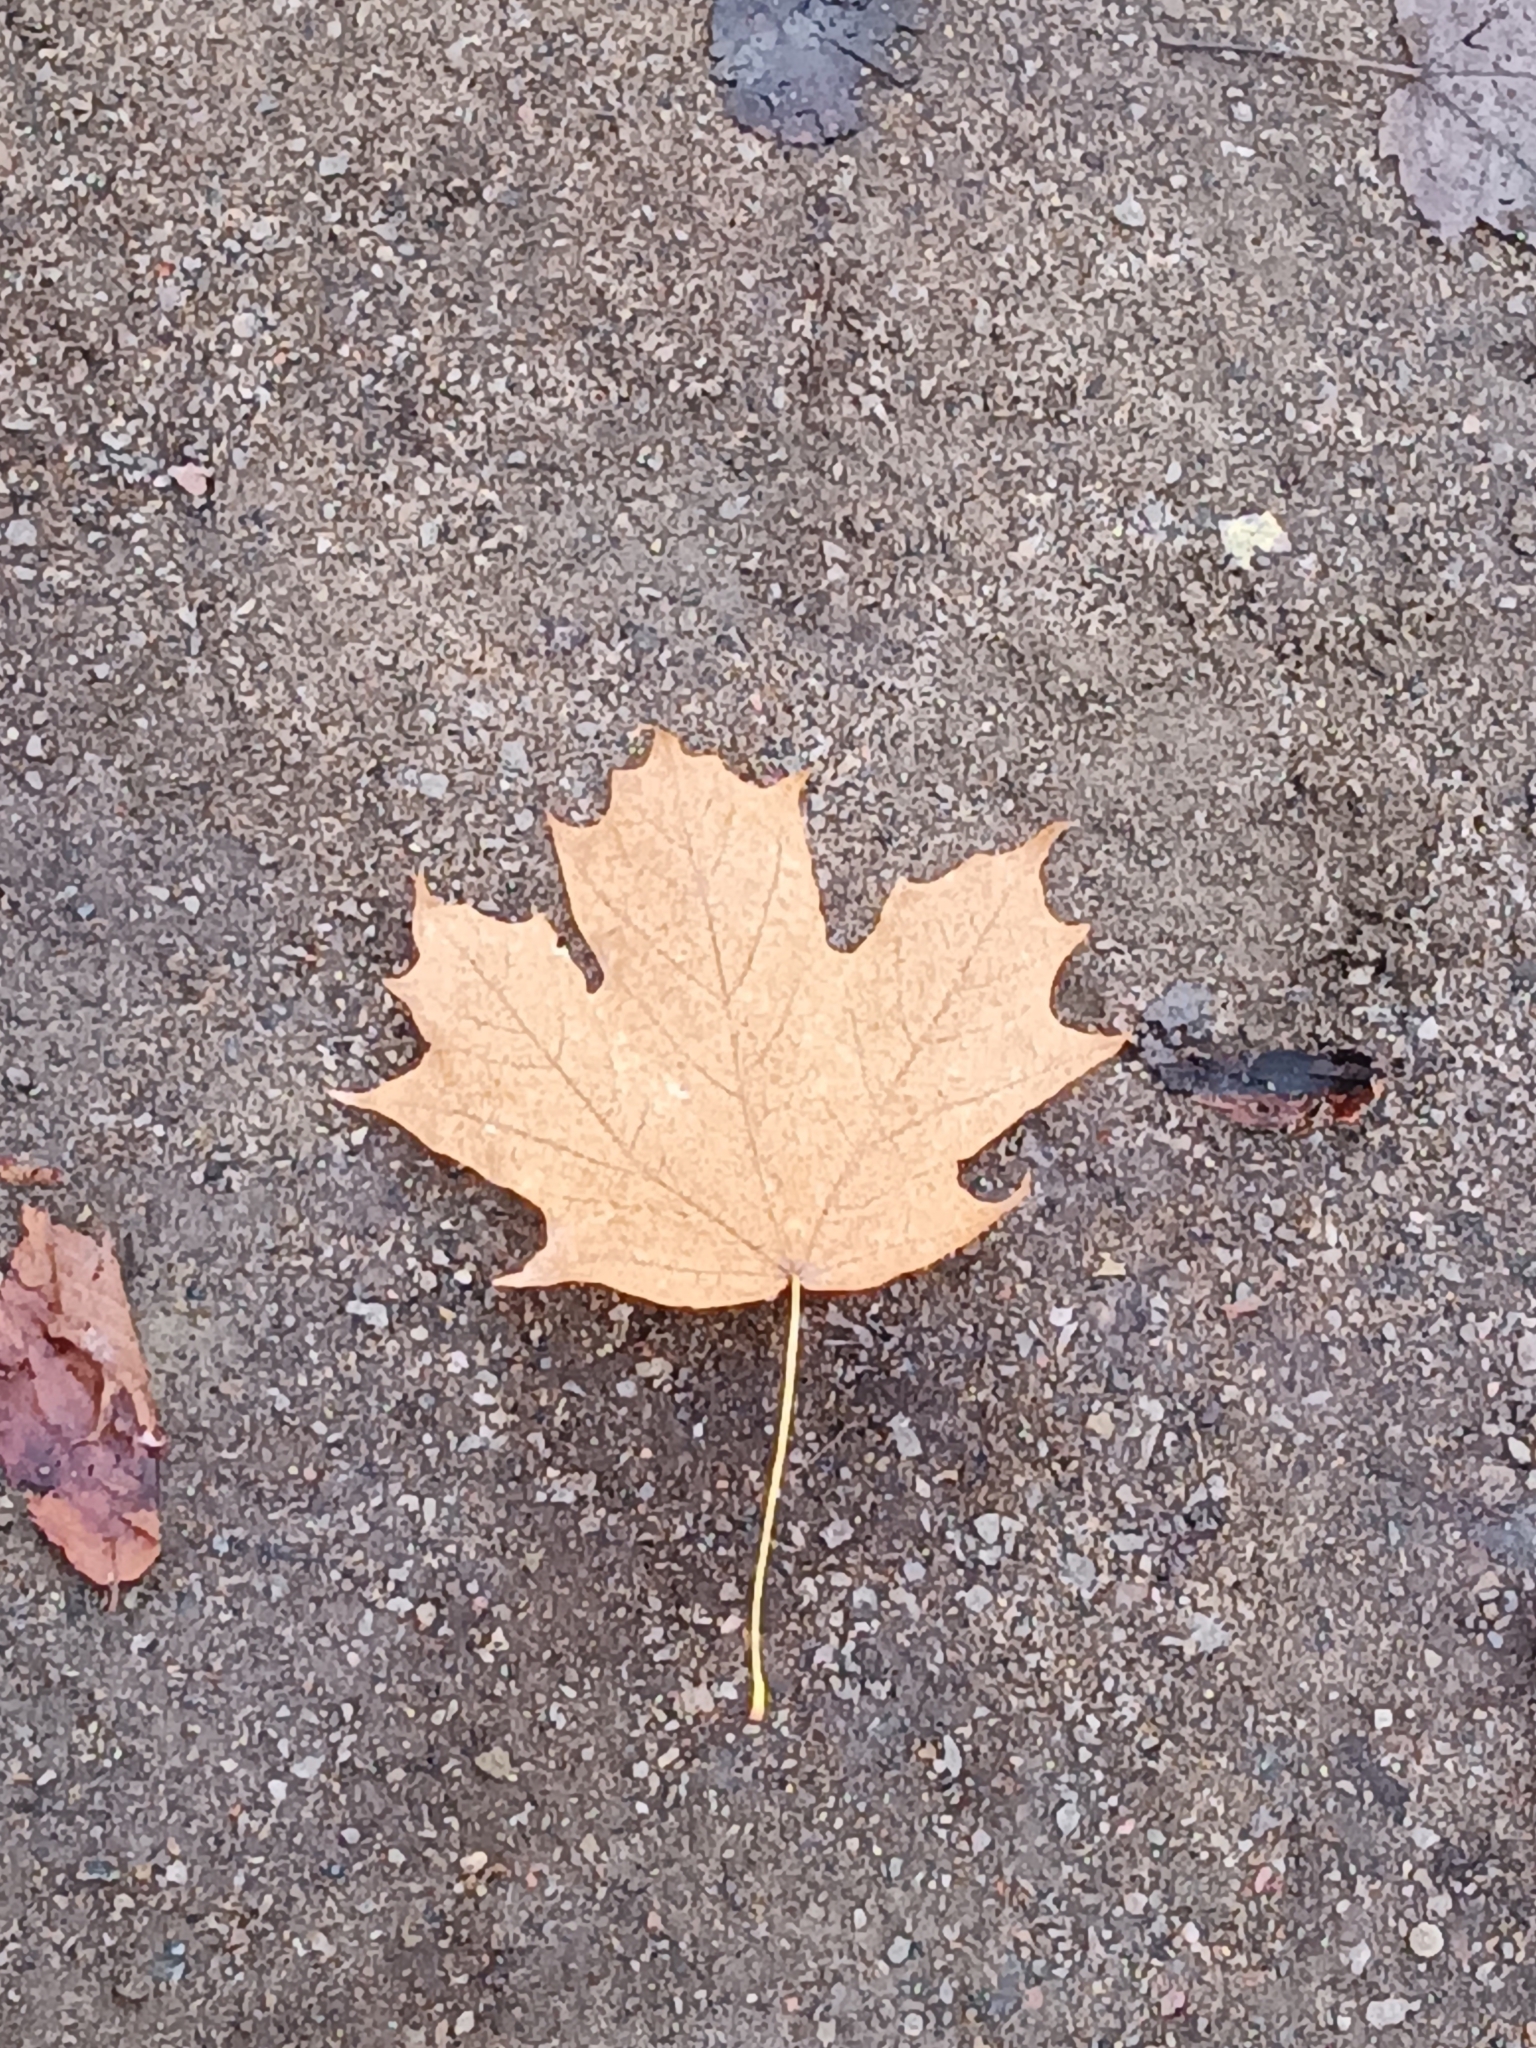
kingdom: Plantae
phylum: Tracheophyta
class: Magnoliopsida
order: Sapindales
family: Sapindaceae
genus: Acer
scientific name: Acer saccharum
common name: Sugar maple
